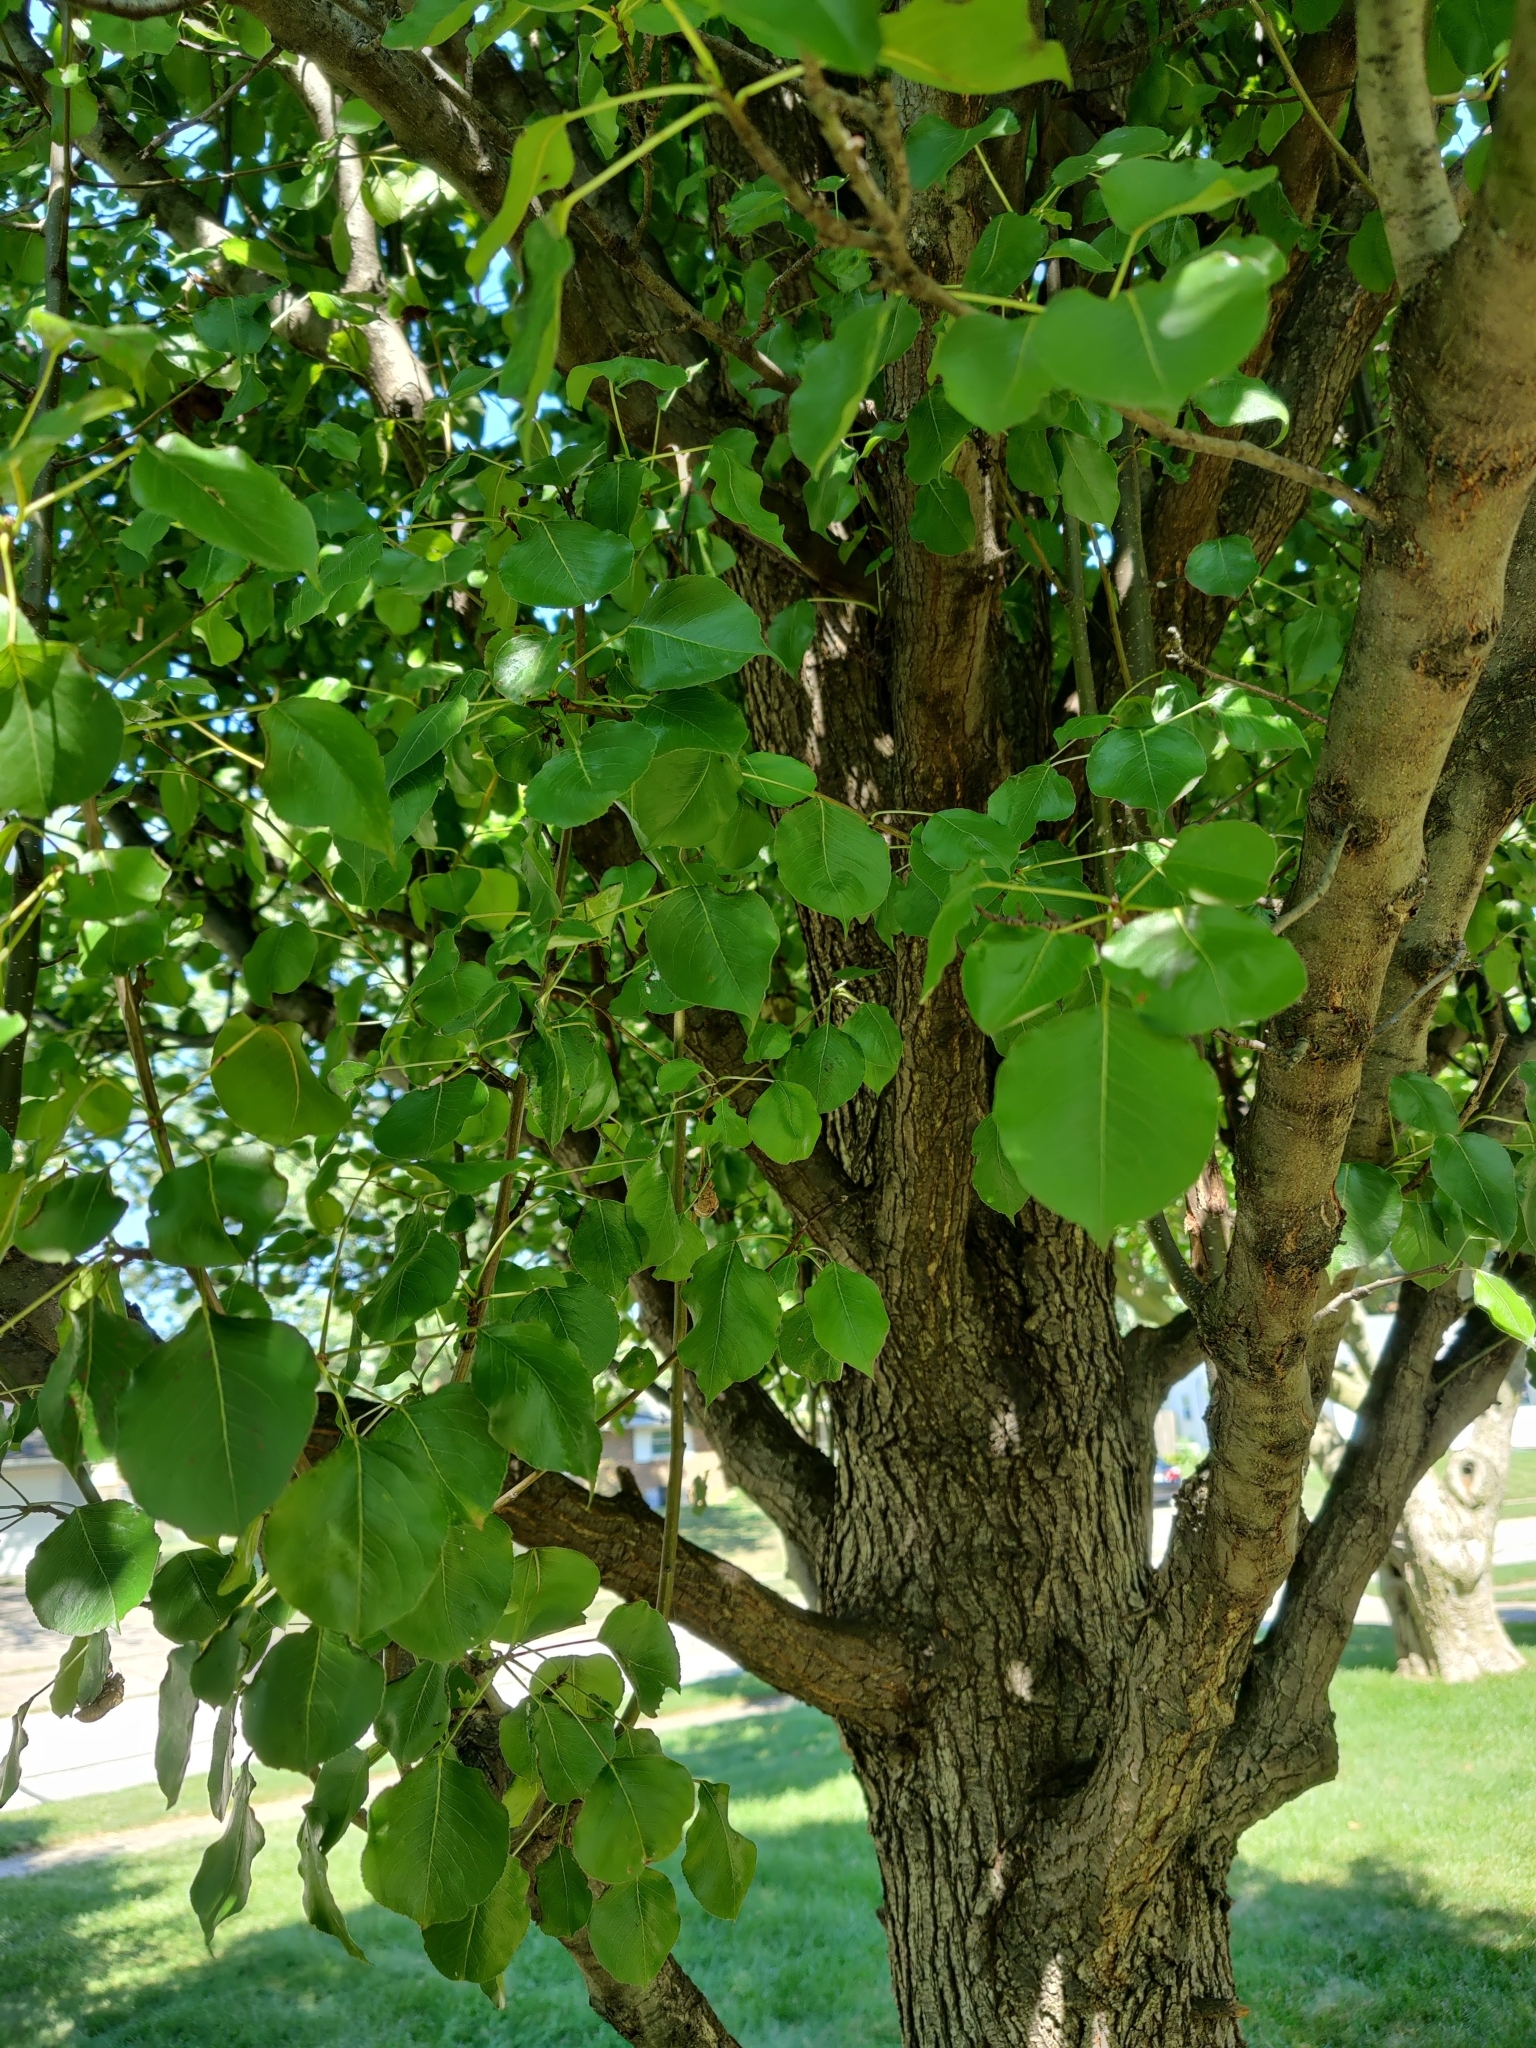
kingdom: Plantae
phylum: Tracheophyta
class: Magnoliopsida
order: Rosales
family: Rosaceae
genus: Pyrus
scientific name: Pyrus calleryana
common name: Callery pear
